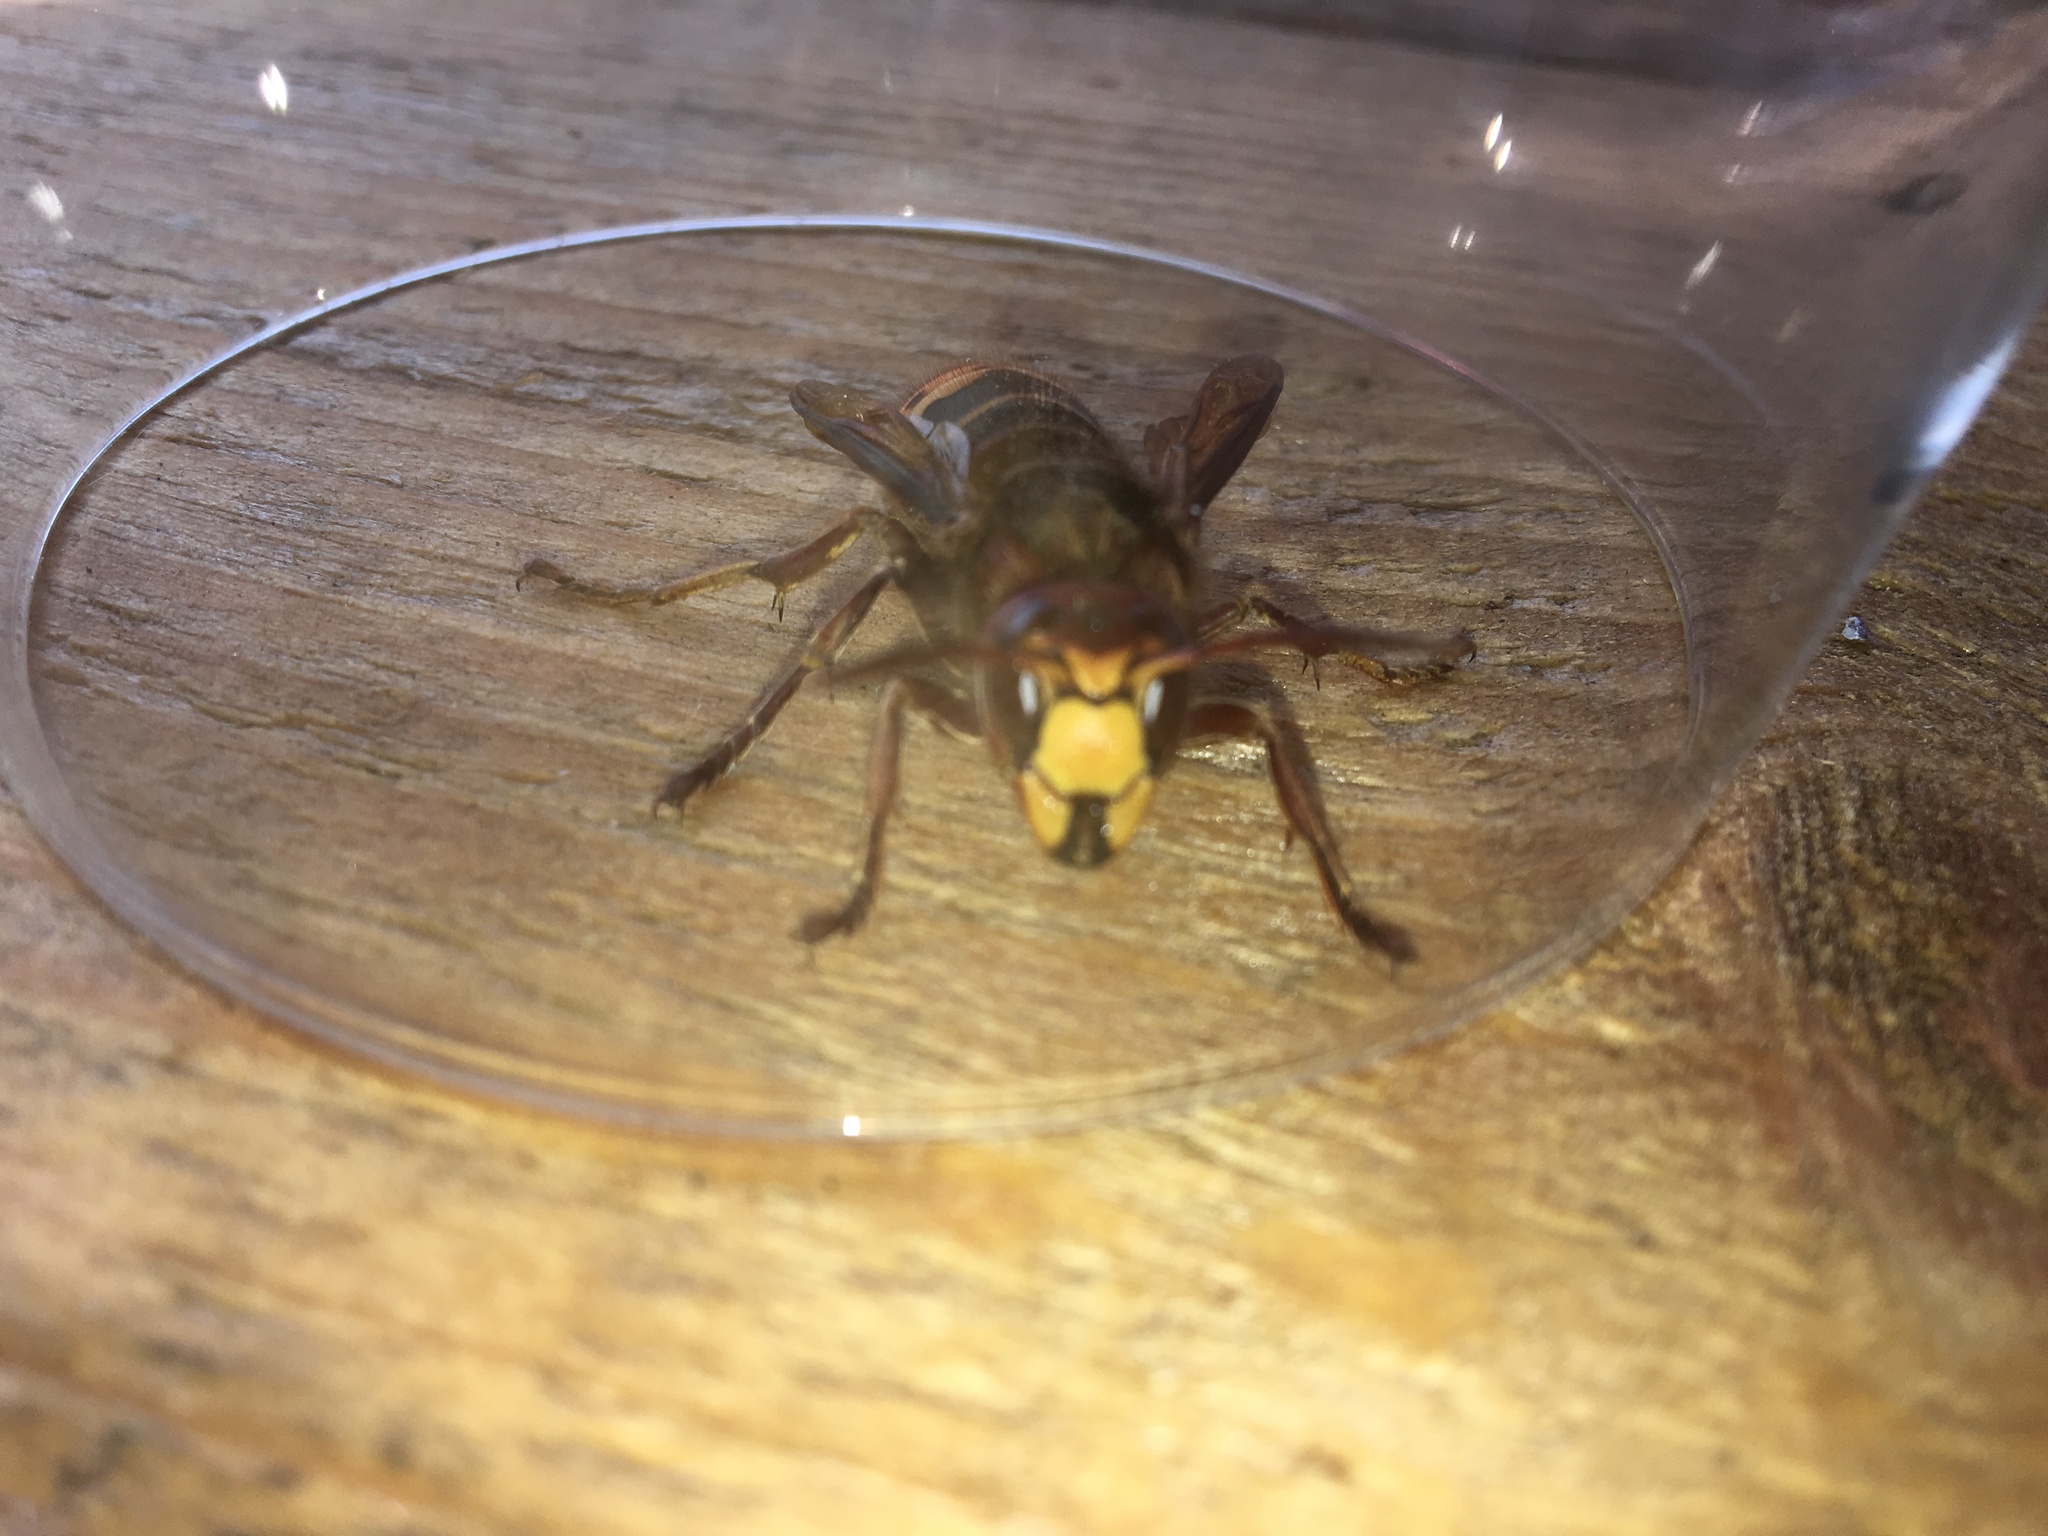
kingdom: Animalia
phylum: Arthropoda
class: Insecta
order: Hymenoptera
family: Vespidae
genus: Vespa
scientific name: Vespa crabro
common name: Hornet
